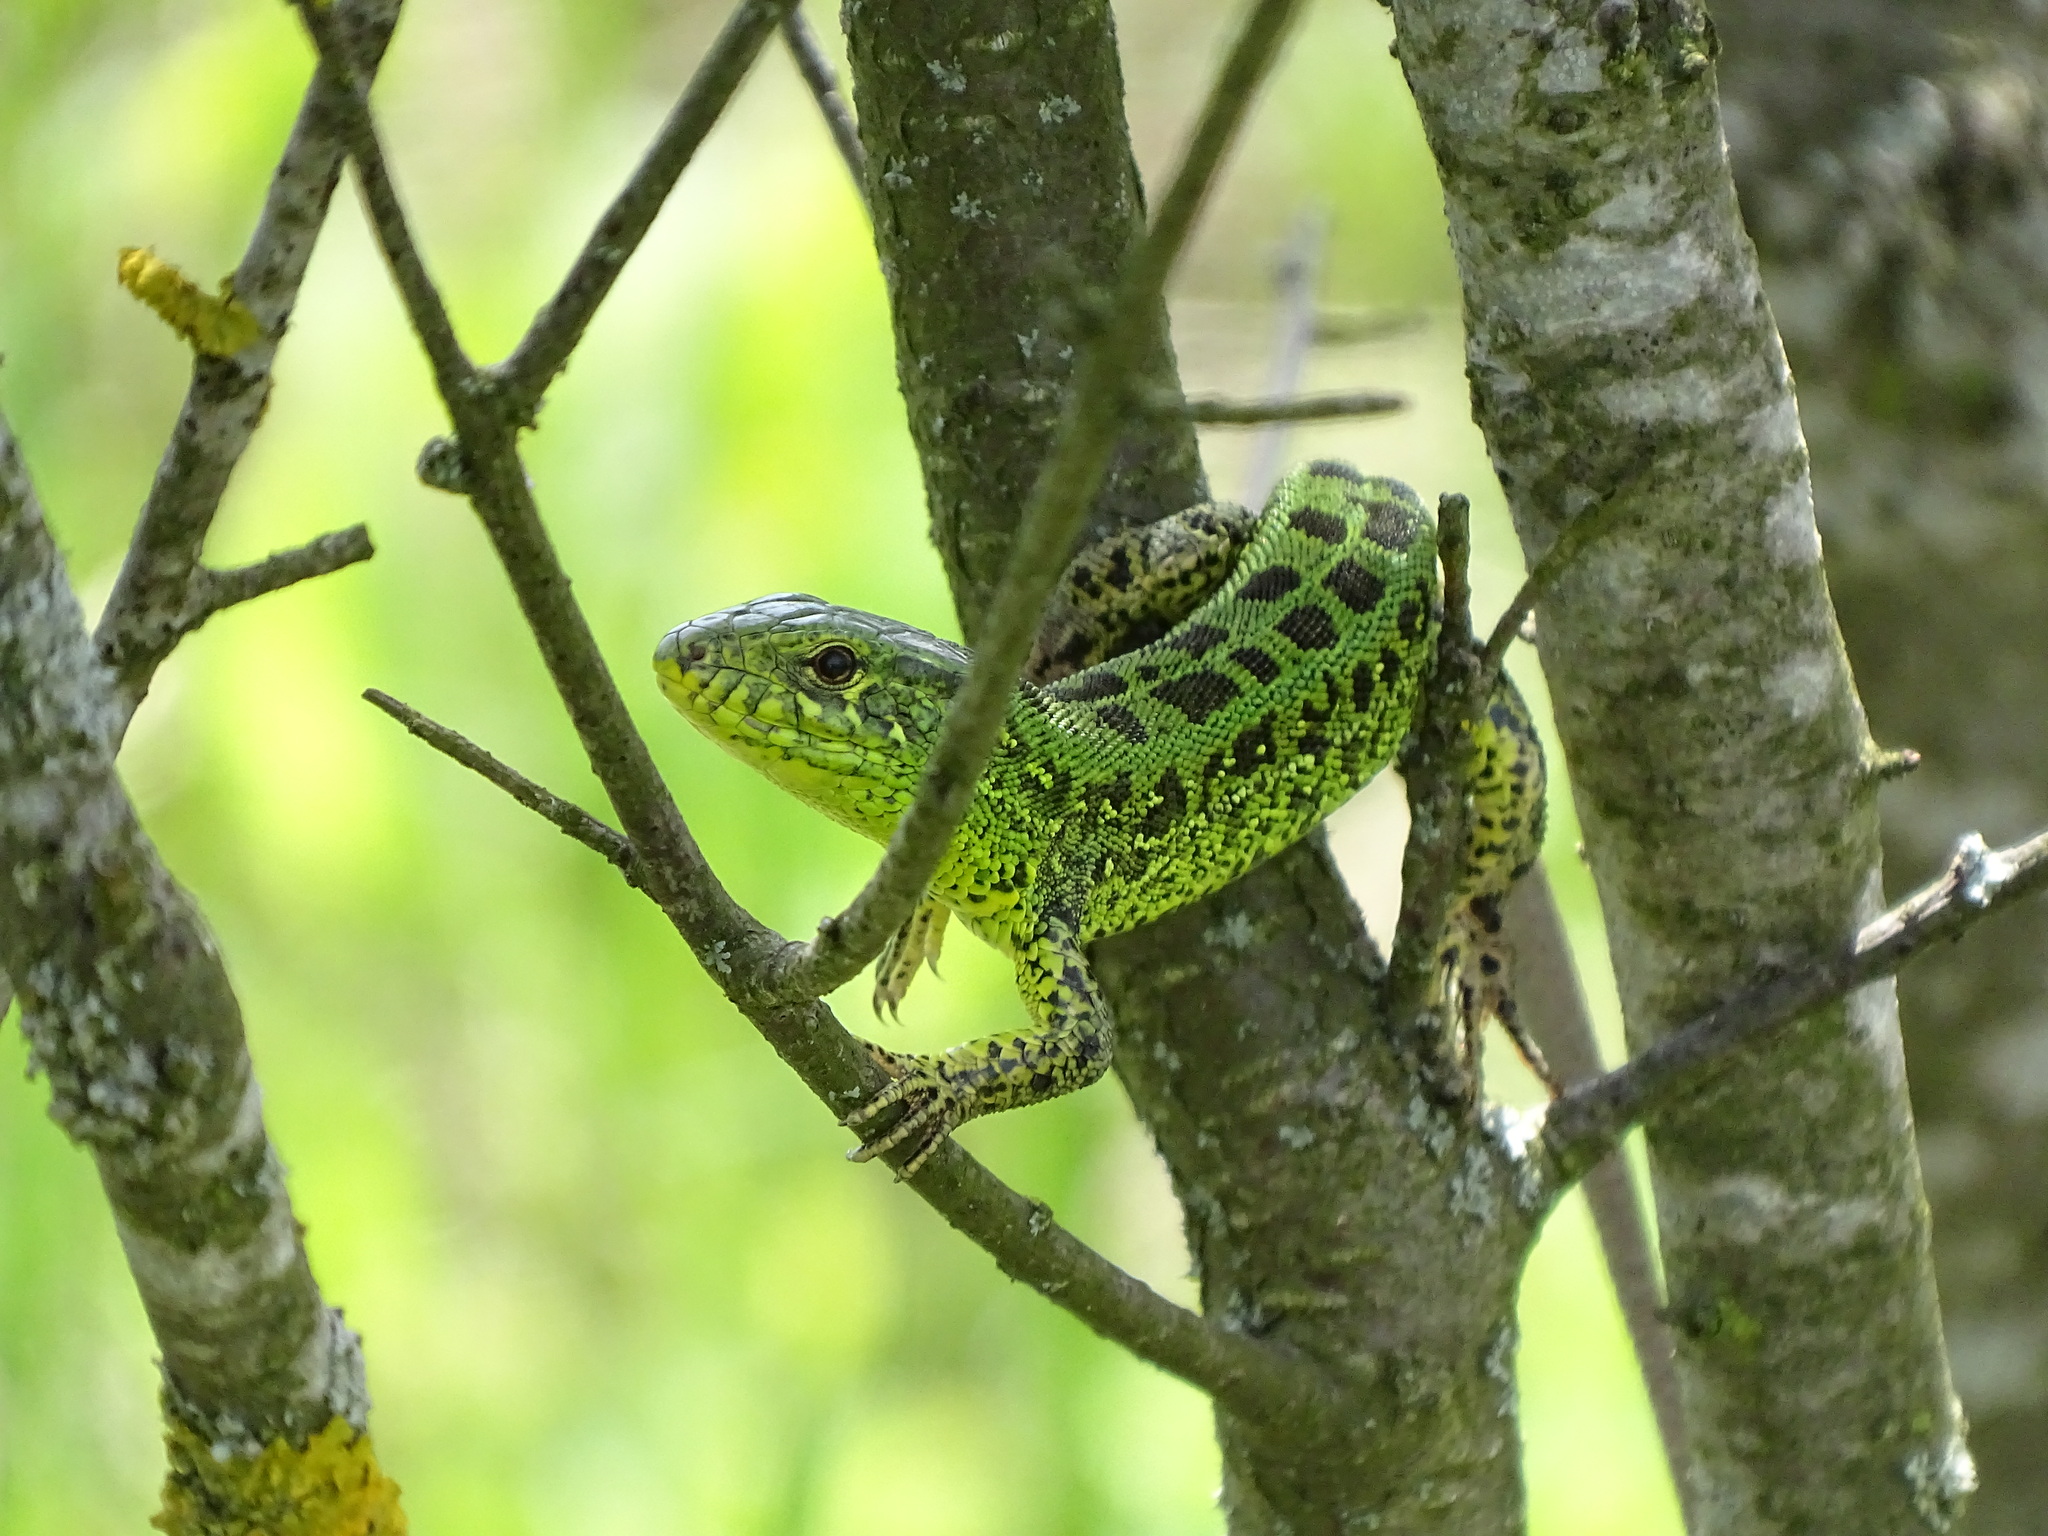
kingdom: Animalia
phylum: Chordata
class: Squamata
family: Lacertidae
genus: Lacerta
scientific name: Lacerta agilis
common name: Sand lizard
